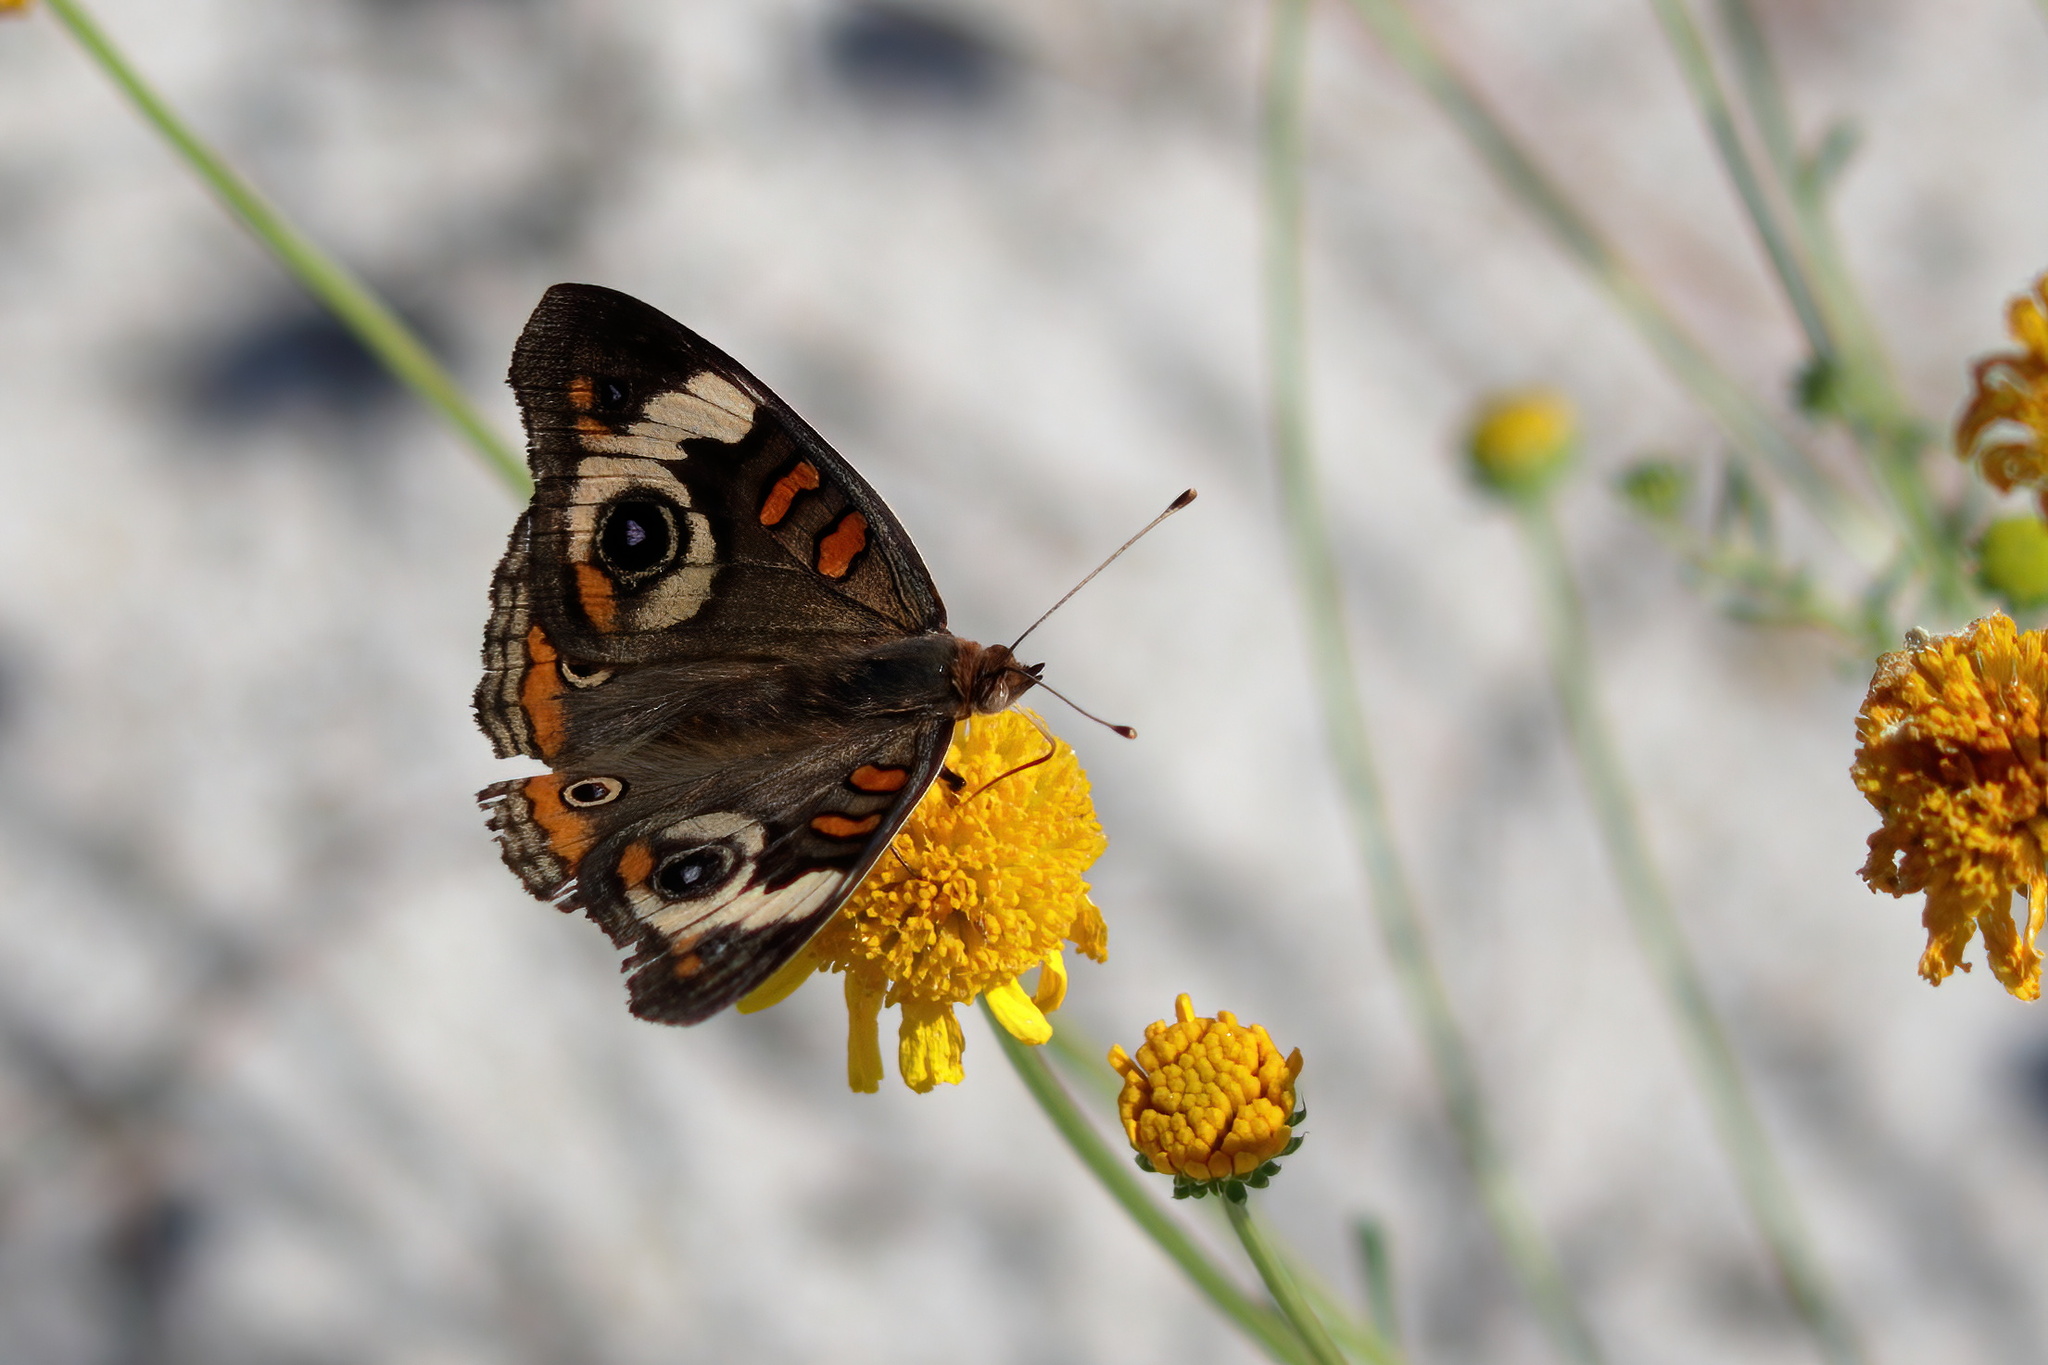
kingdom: Animalia
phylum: Arthropoda
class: Insecta
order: Lepidoptera
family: Nymphalidae
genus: Junonia
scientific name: Junonia coenia
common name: Common buckeye
